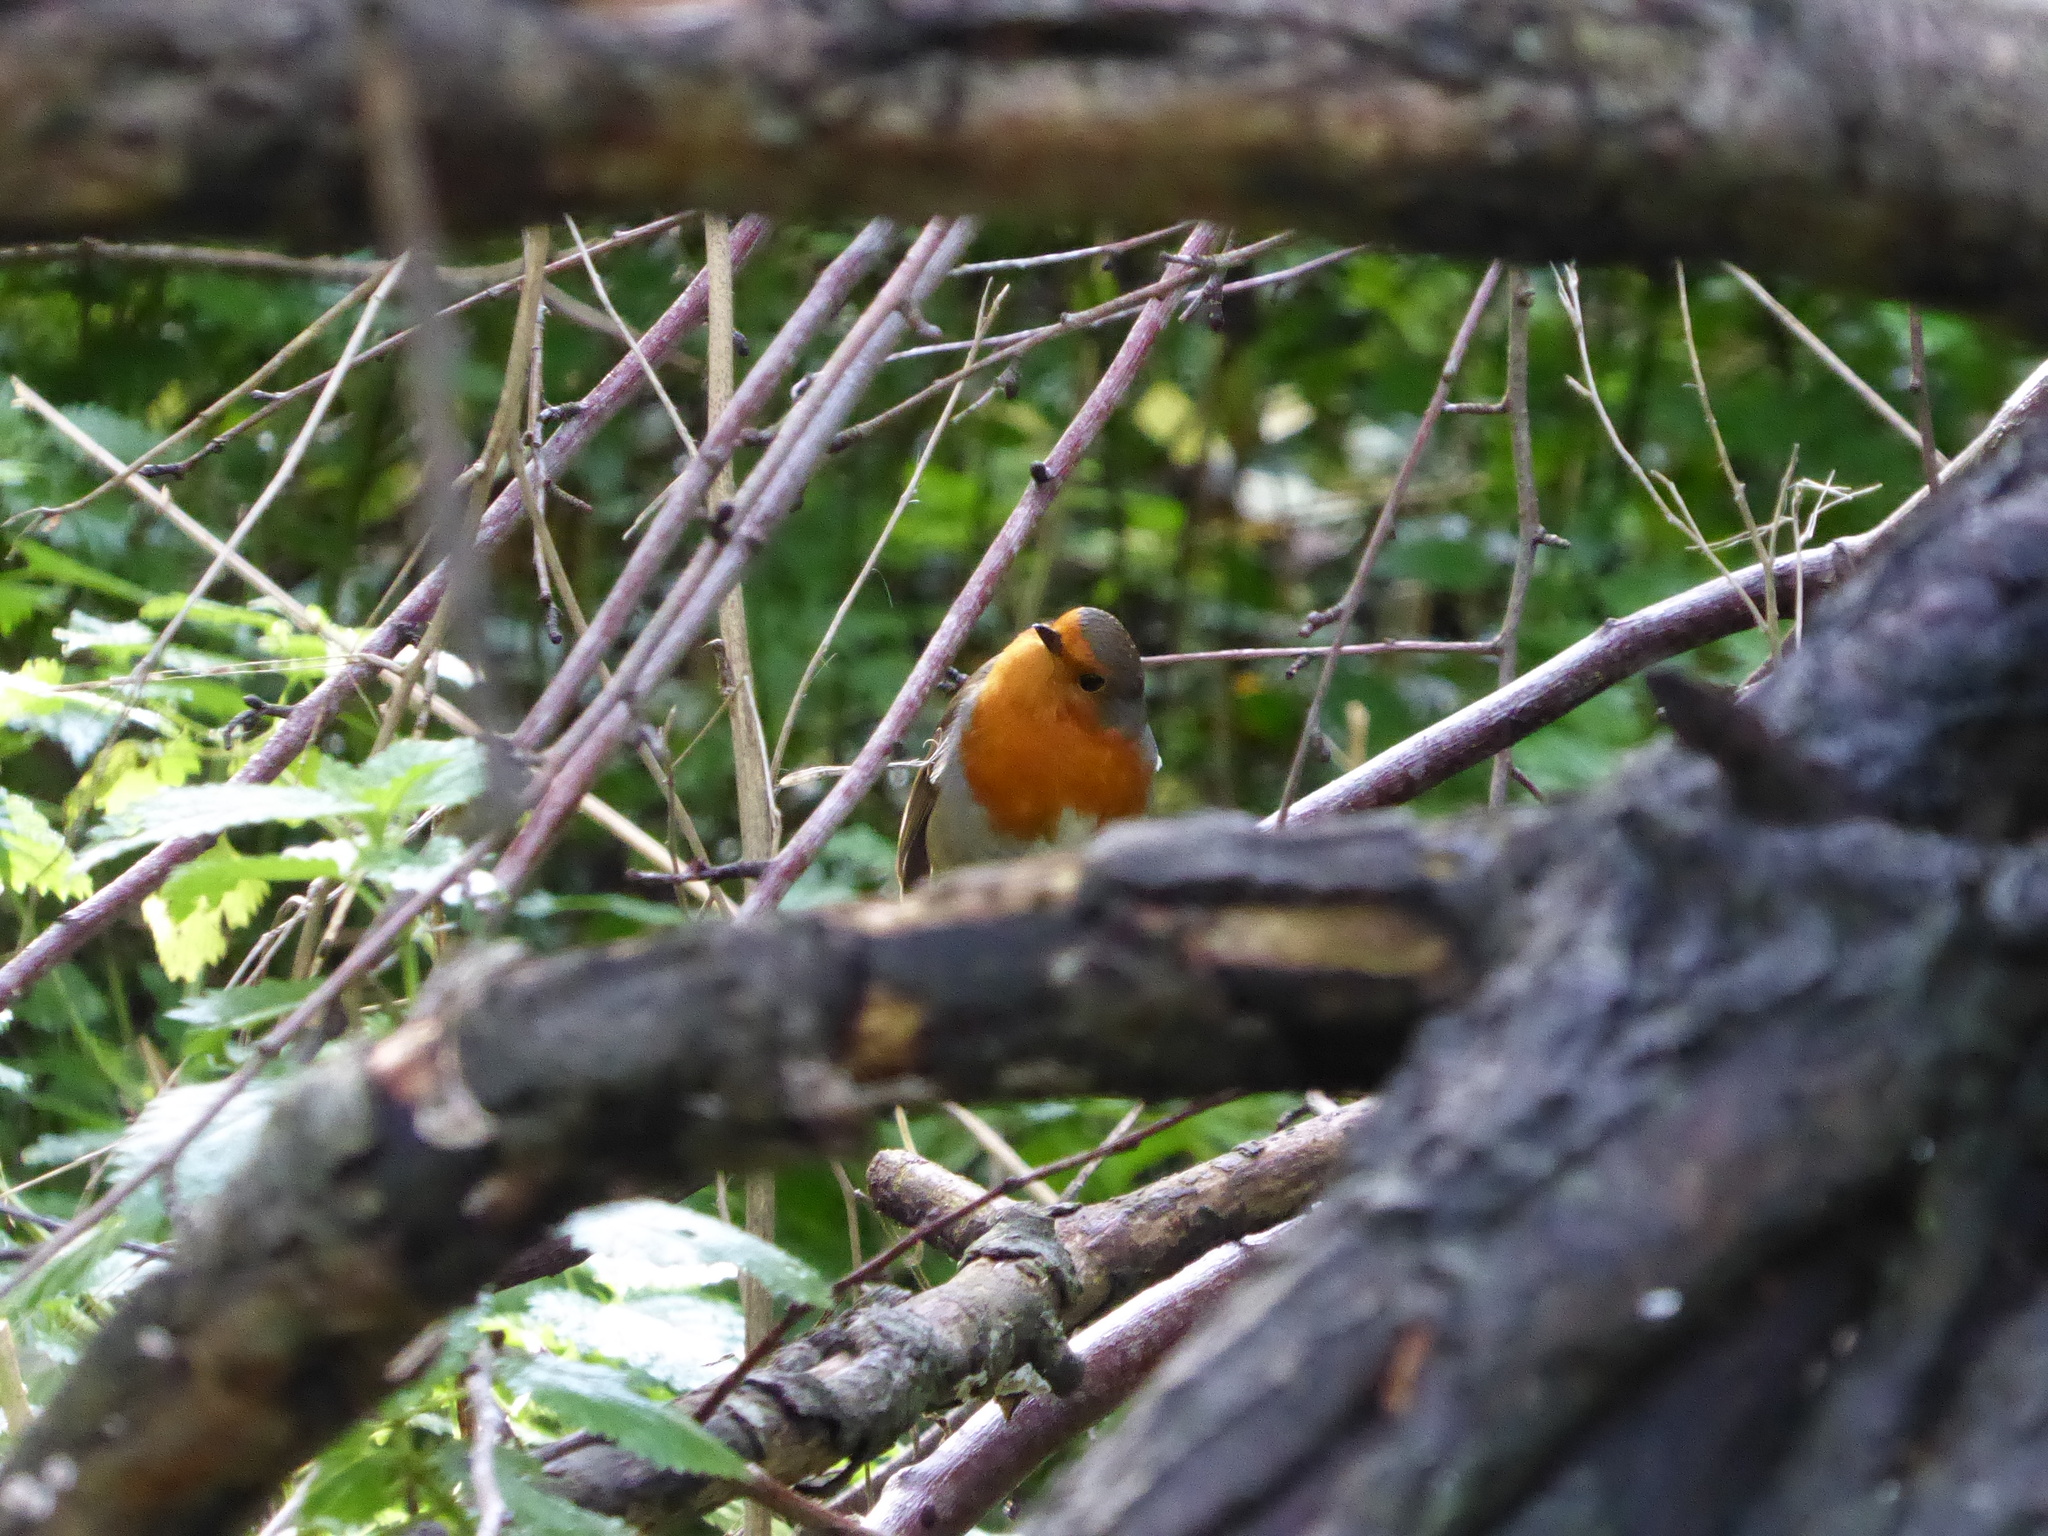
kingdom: Animalia
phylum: Chordata
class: Aves
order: Passeriformes
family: Muscicapidae
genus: Erithacus
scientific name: Erithacus rubecula
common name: European robin
